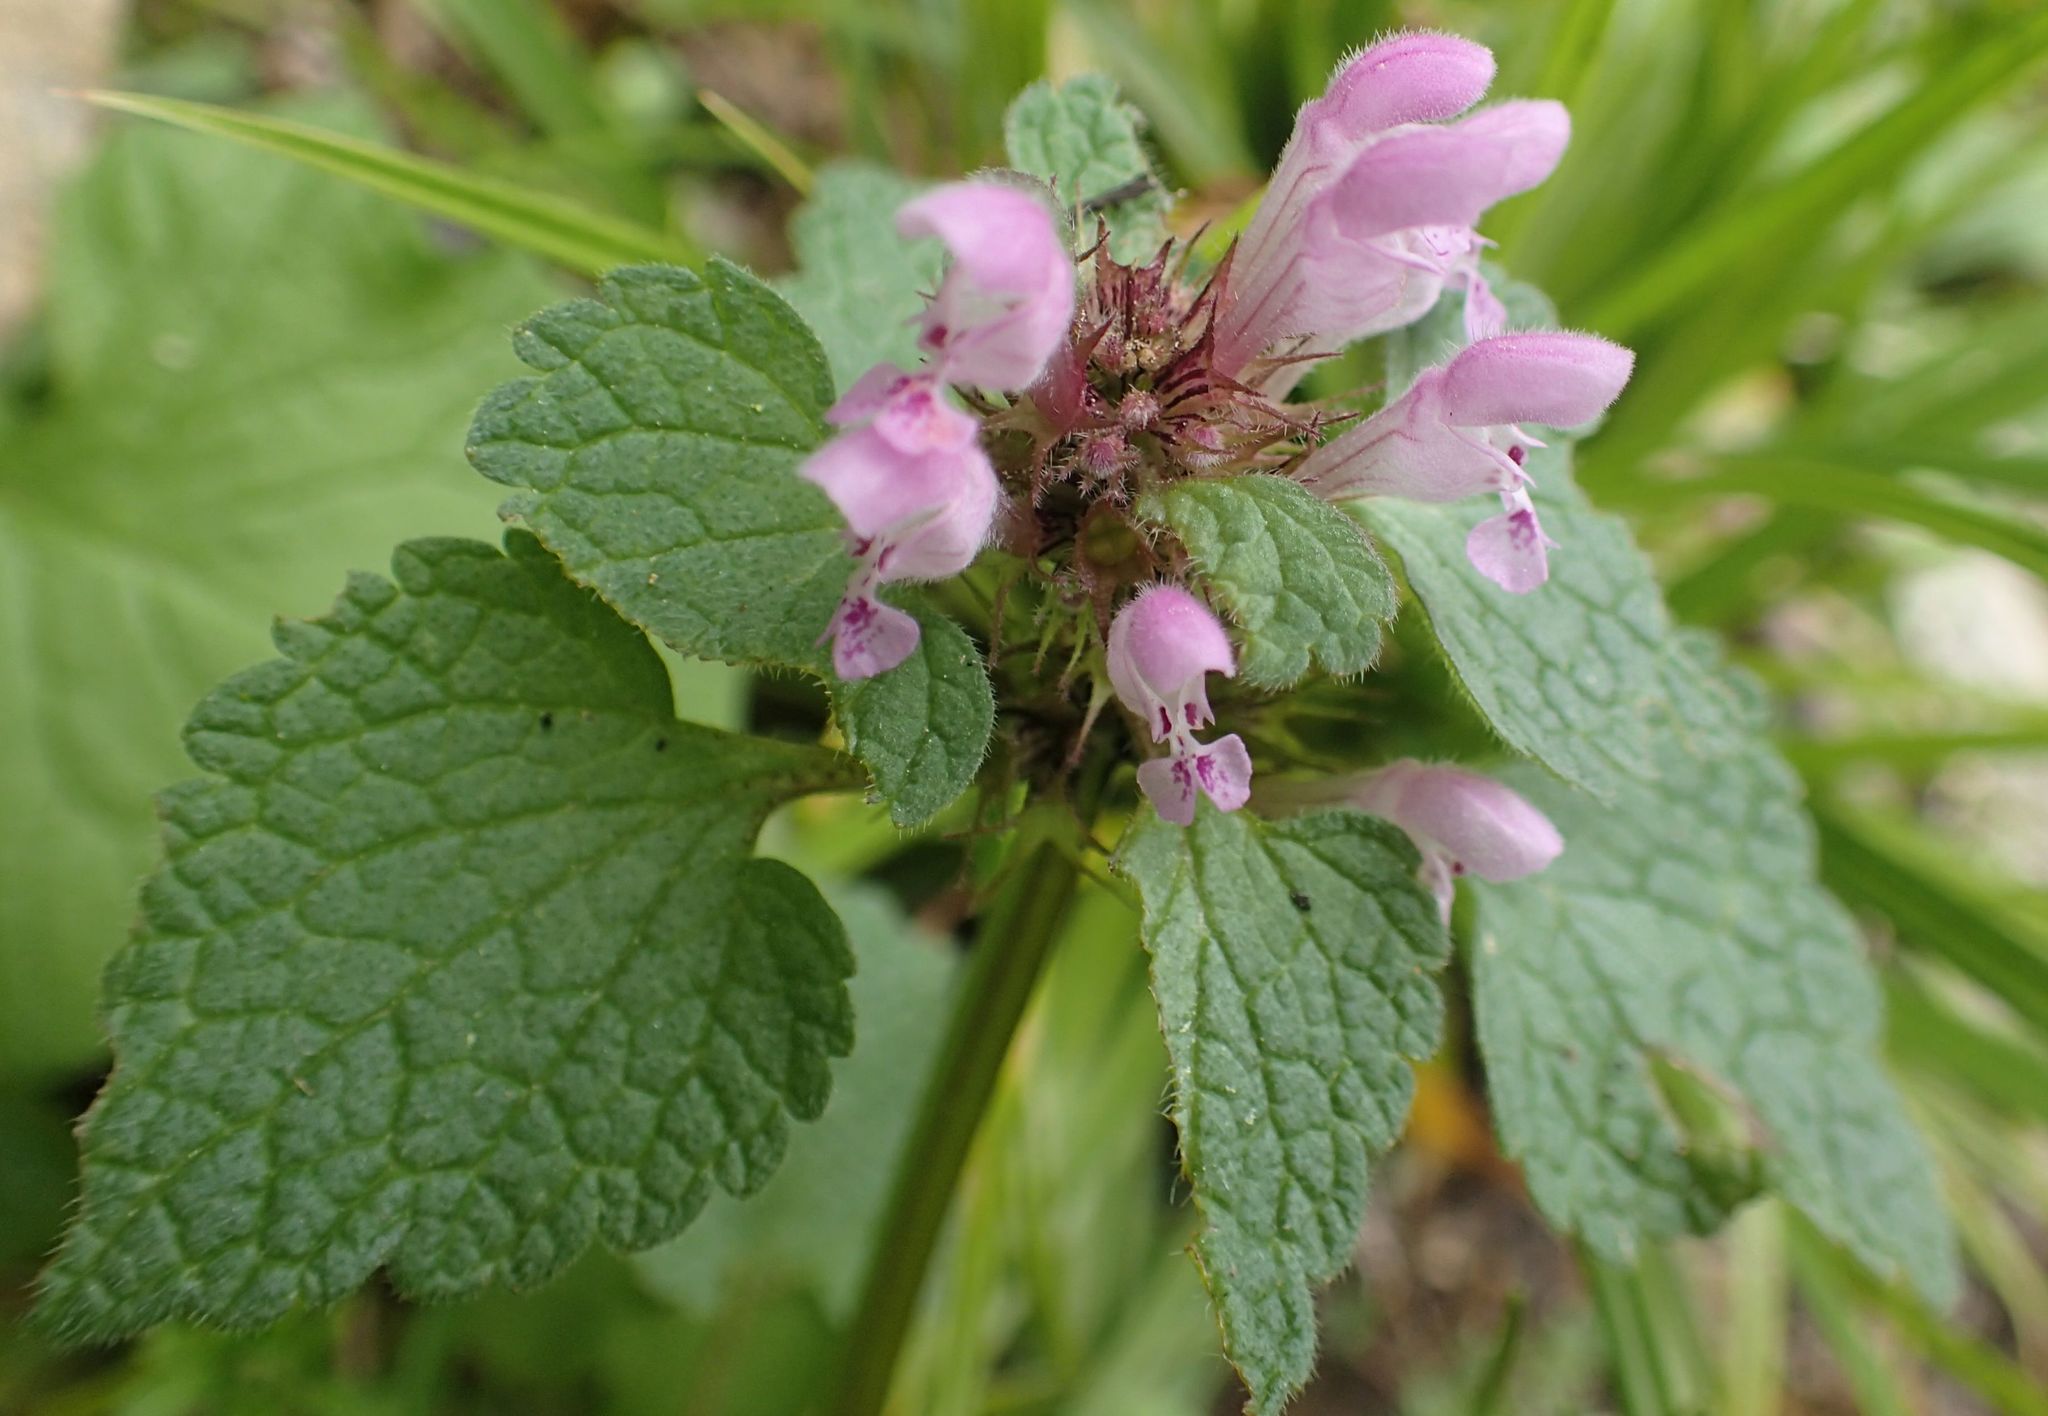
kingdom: Plantae
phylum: Tracheophyta
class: Magnoliopsida
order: Lamiales
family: Lamiaceae
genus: Lamium
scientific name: Lamium purpureum
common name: Red dead-nettle
